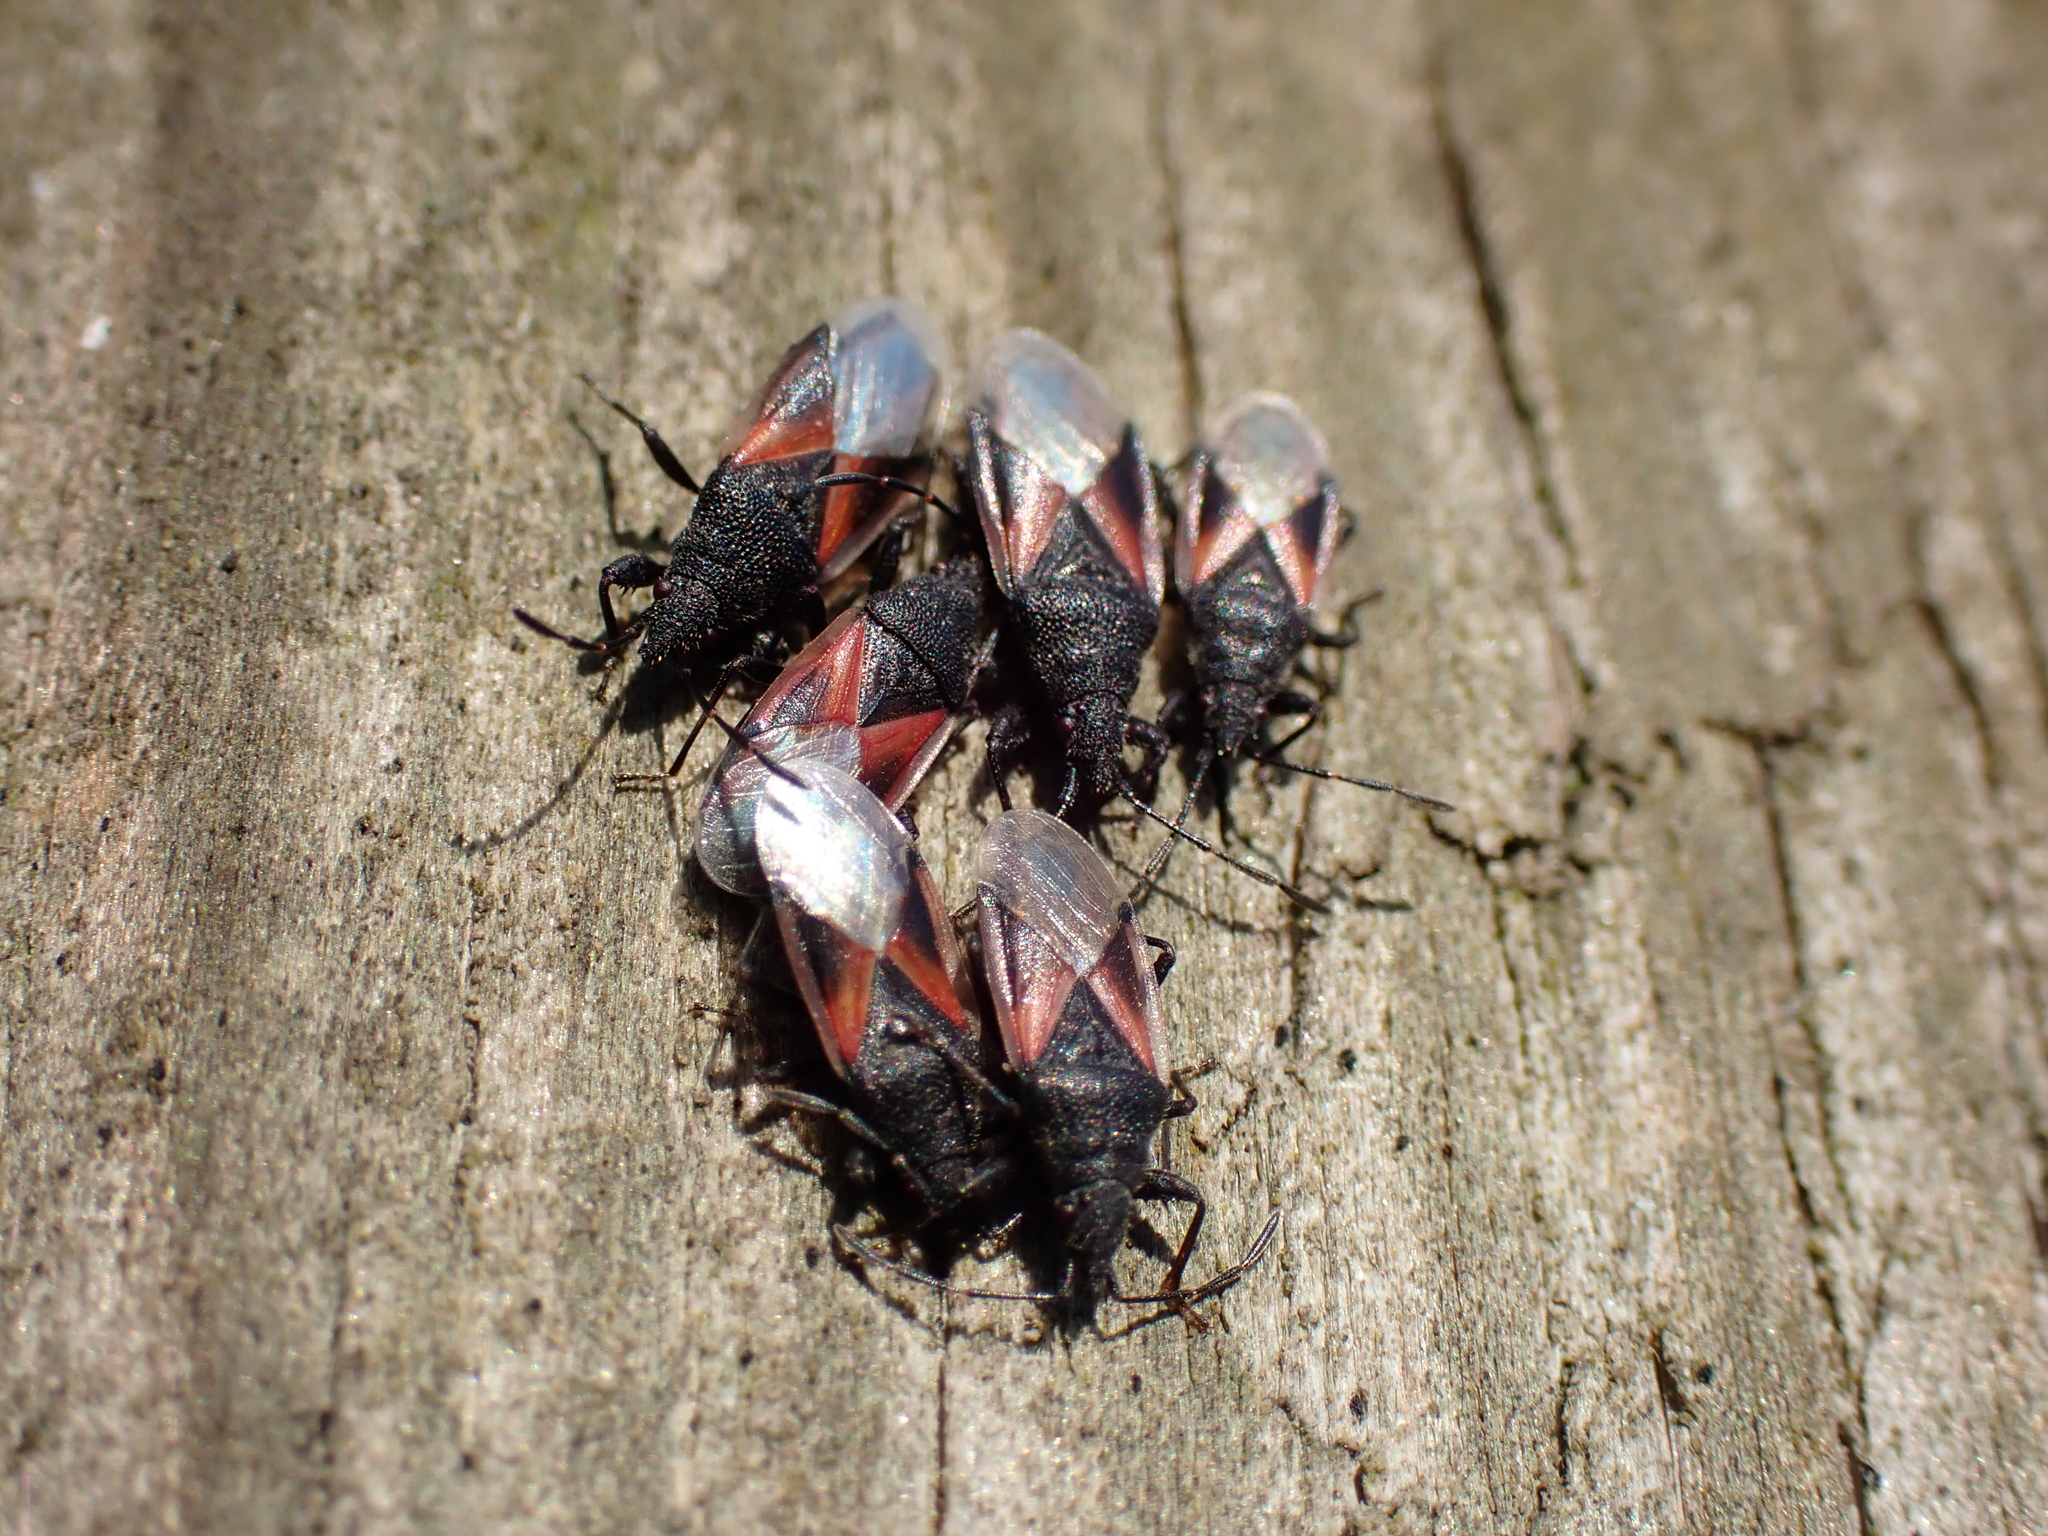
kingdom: Animalia
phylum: Arthropoda
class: Insecta
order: Hemiptera
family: Oxycarenidae
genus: Oxycarenus
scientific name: Oxycarenus lavaterae
